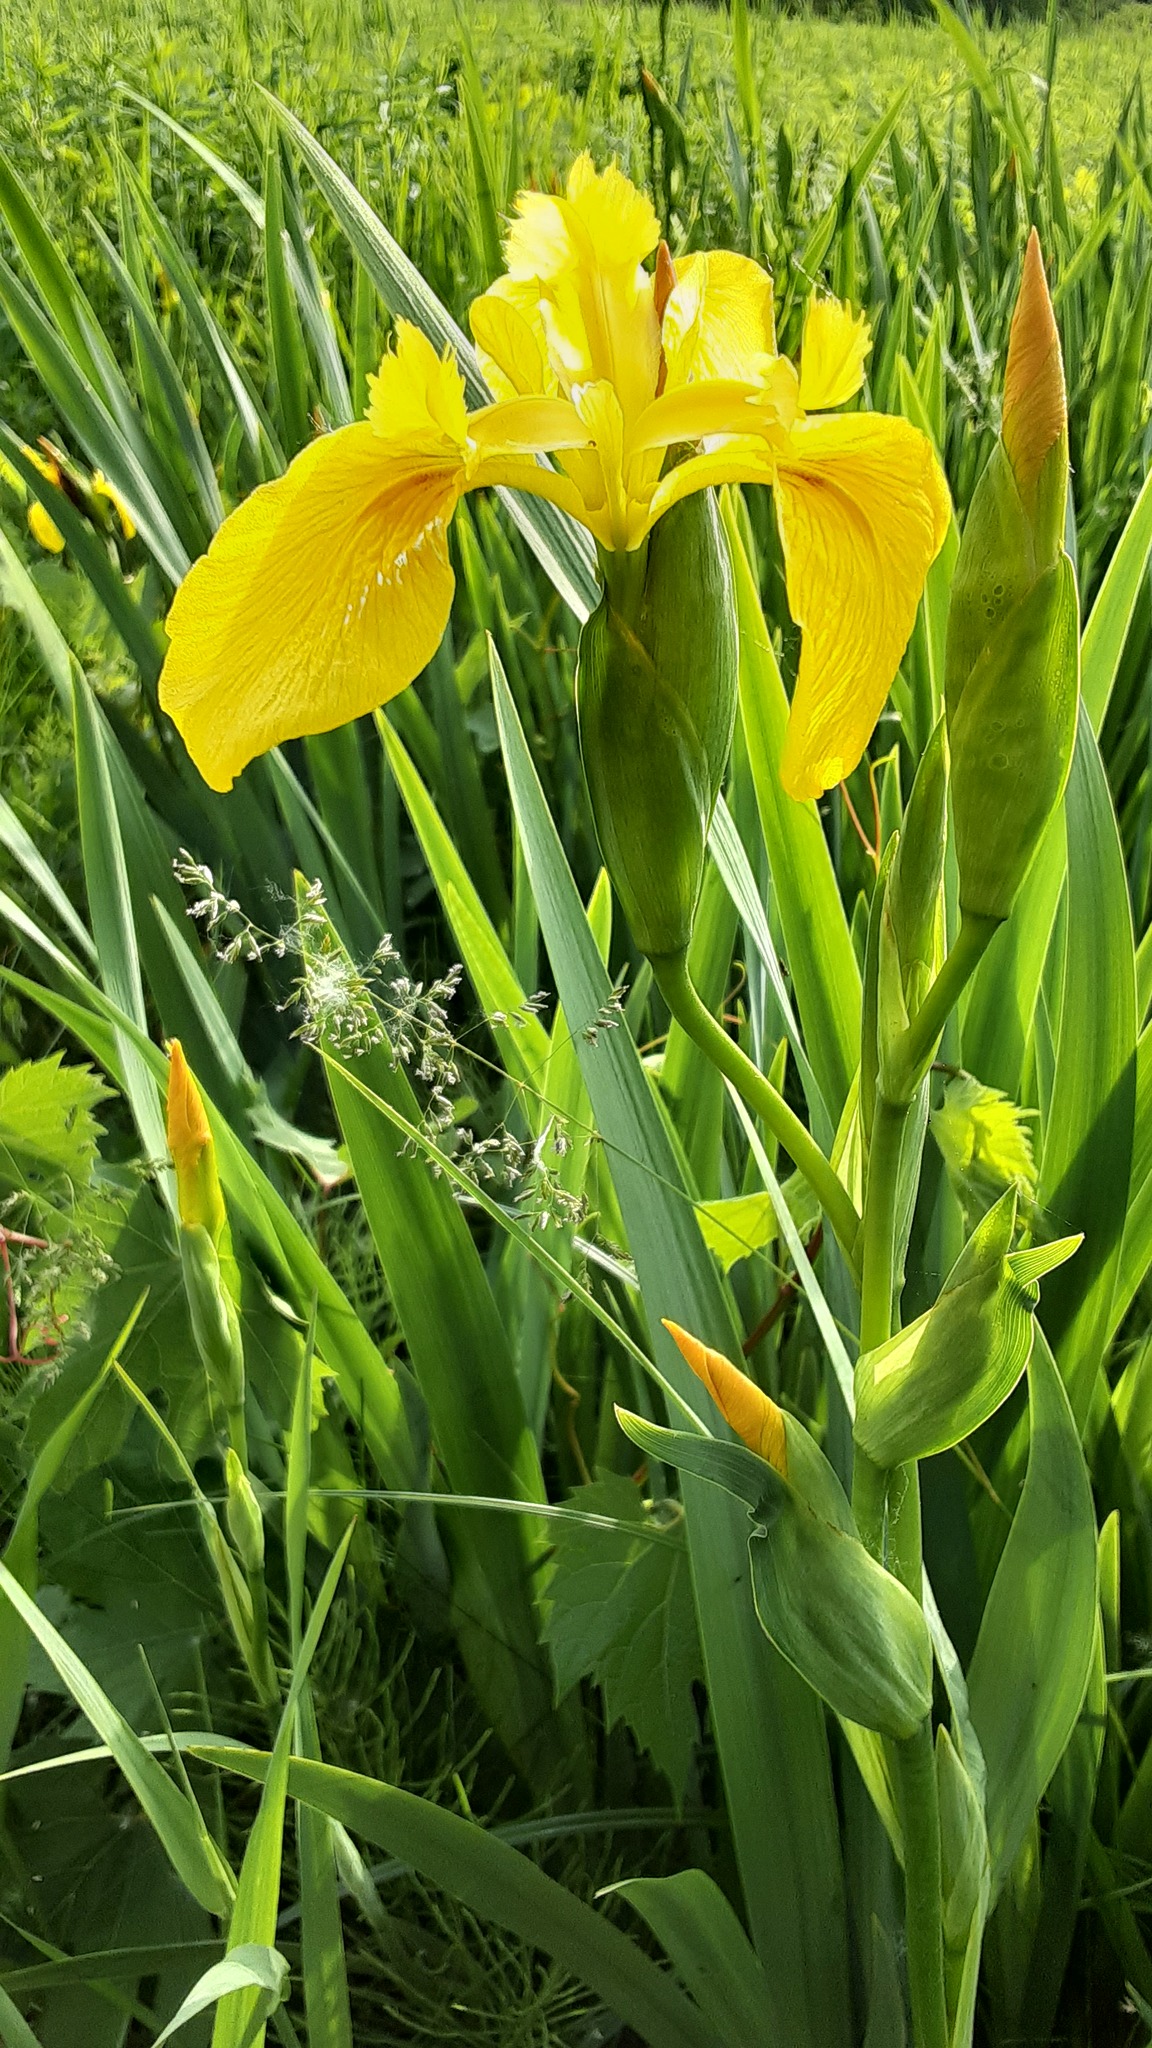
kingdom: Plantae
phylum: Tracheophyta
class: Liliopsida
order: Asparagales
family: Iridaceae
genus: Iris
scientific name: Iris pseudacorus
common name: Yellow flag
